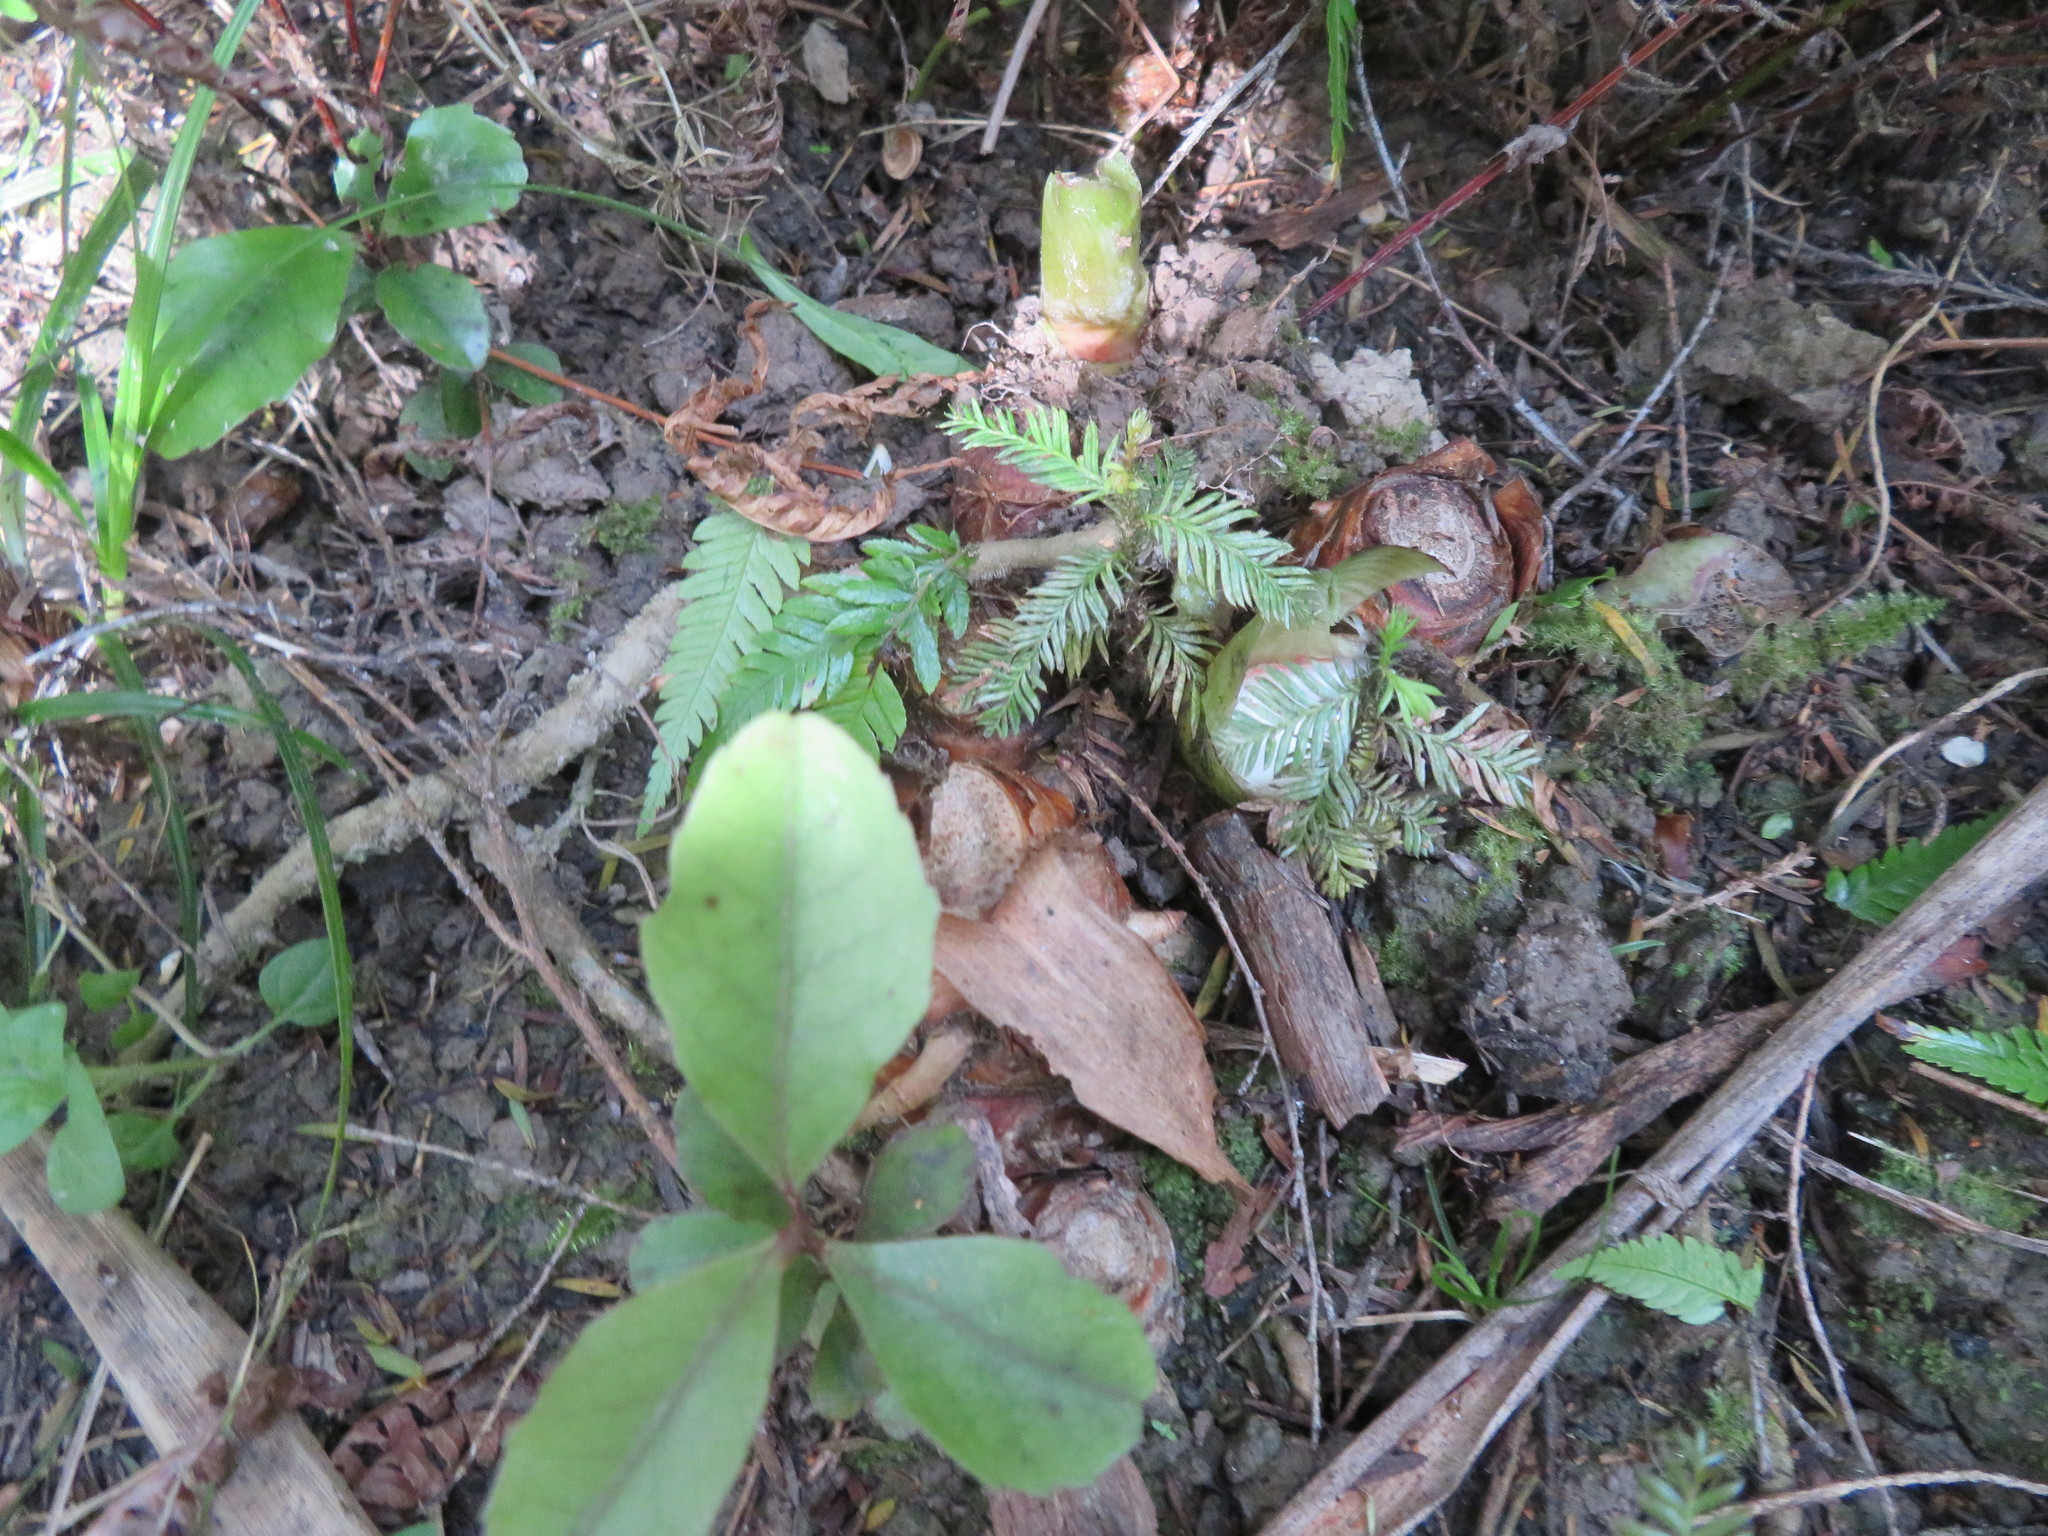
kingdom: Plantae
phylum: Tracheophyta
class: Pinopsida
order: Pinales
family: Podocarpaceae
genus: Dacrycarpus
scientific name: Dacrycarpus dacrydioides
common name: White pine
